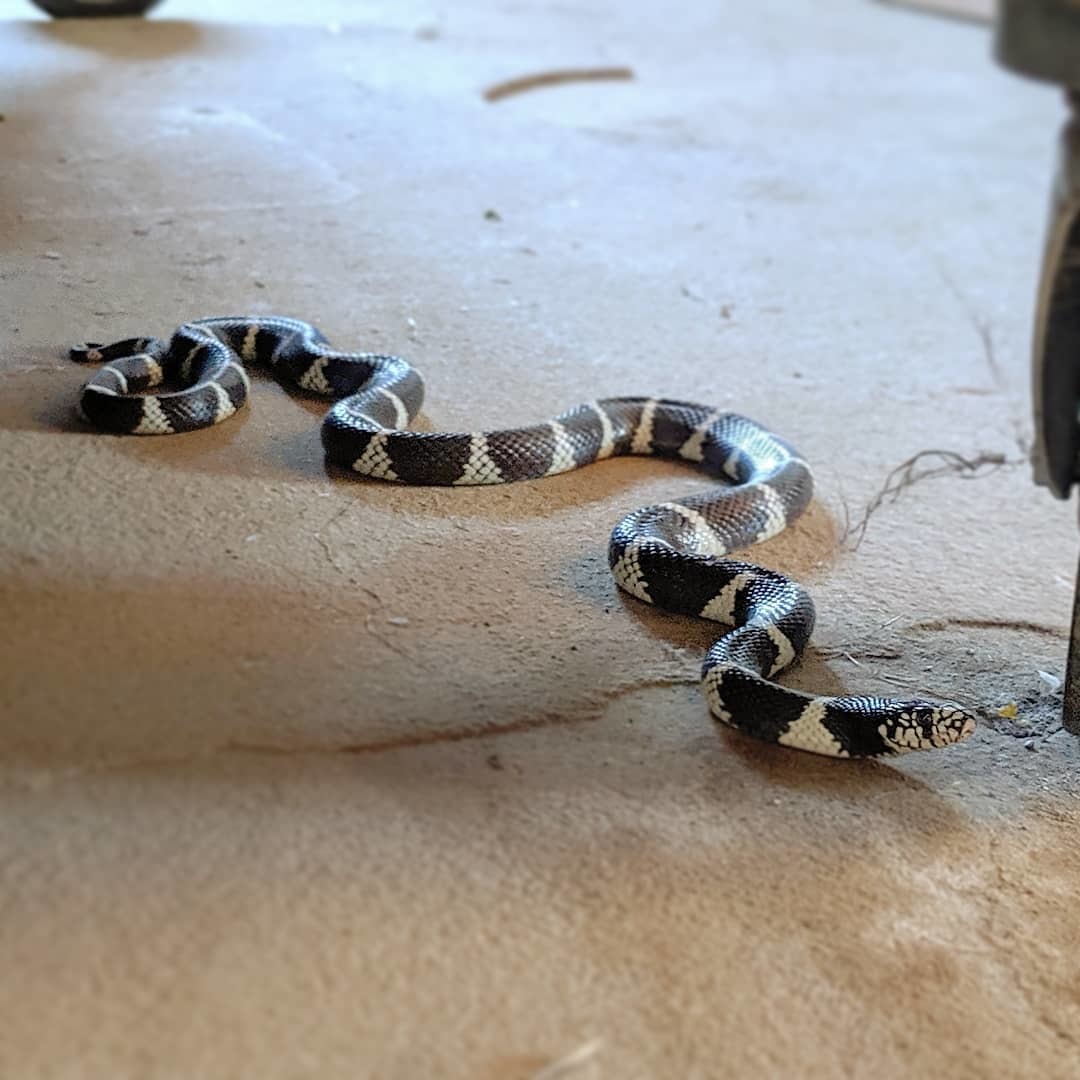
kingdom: Animalia
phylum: Chordata
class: Squamata
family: Colubridae
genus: Lampropeltis
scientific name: Lampropeltis californiae
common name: California kingsnake
